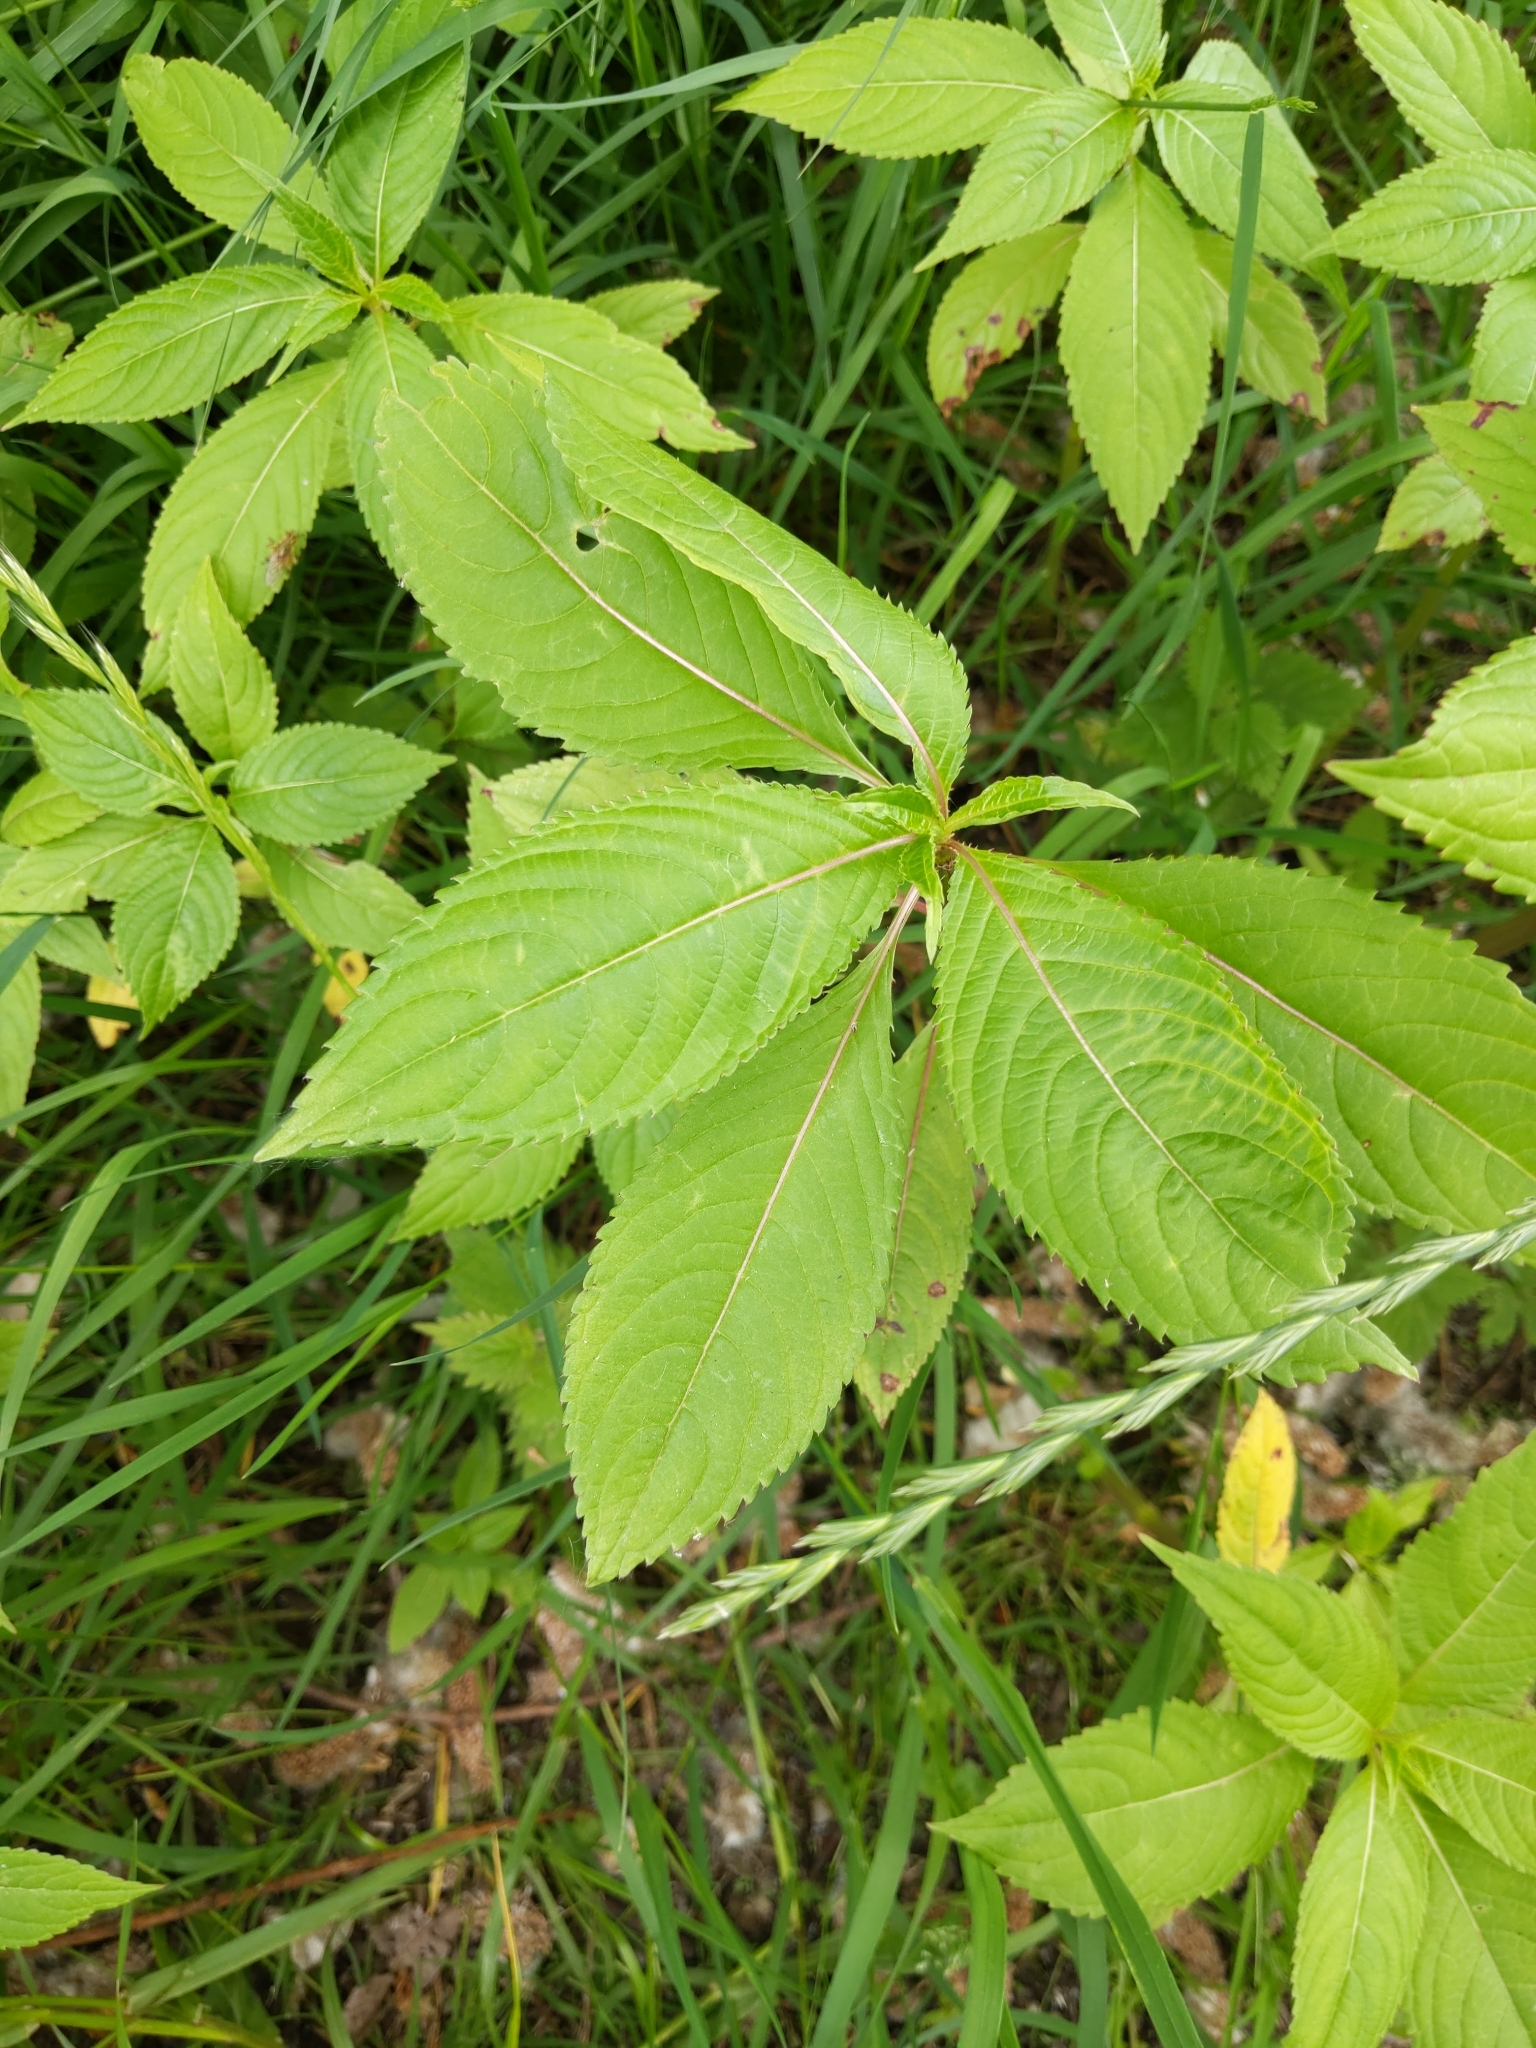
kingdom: Plantae
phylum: Tracheophyta
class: Magnoliopsida
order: Ericales
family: Balsaminaceae
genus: Impatiens
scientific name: Impatiens parviflora
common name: Small balsam
